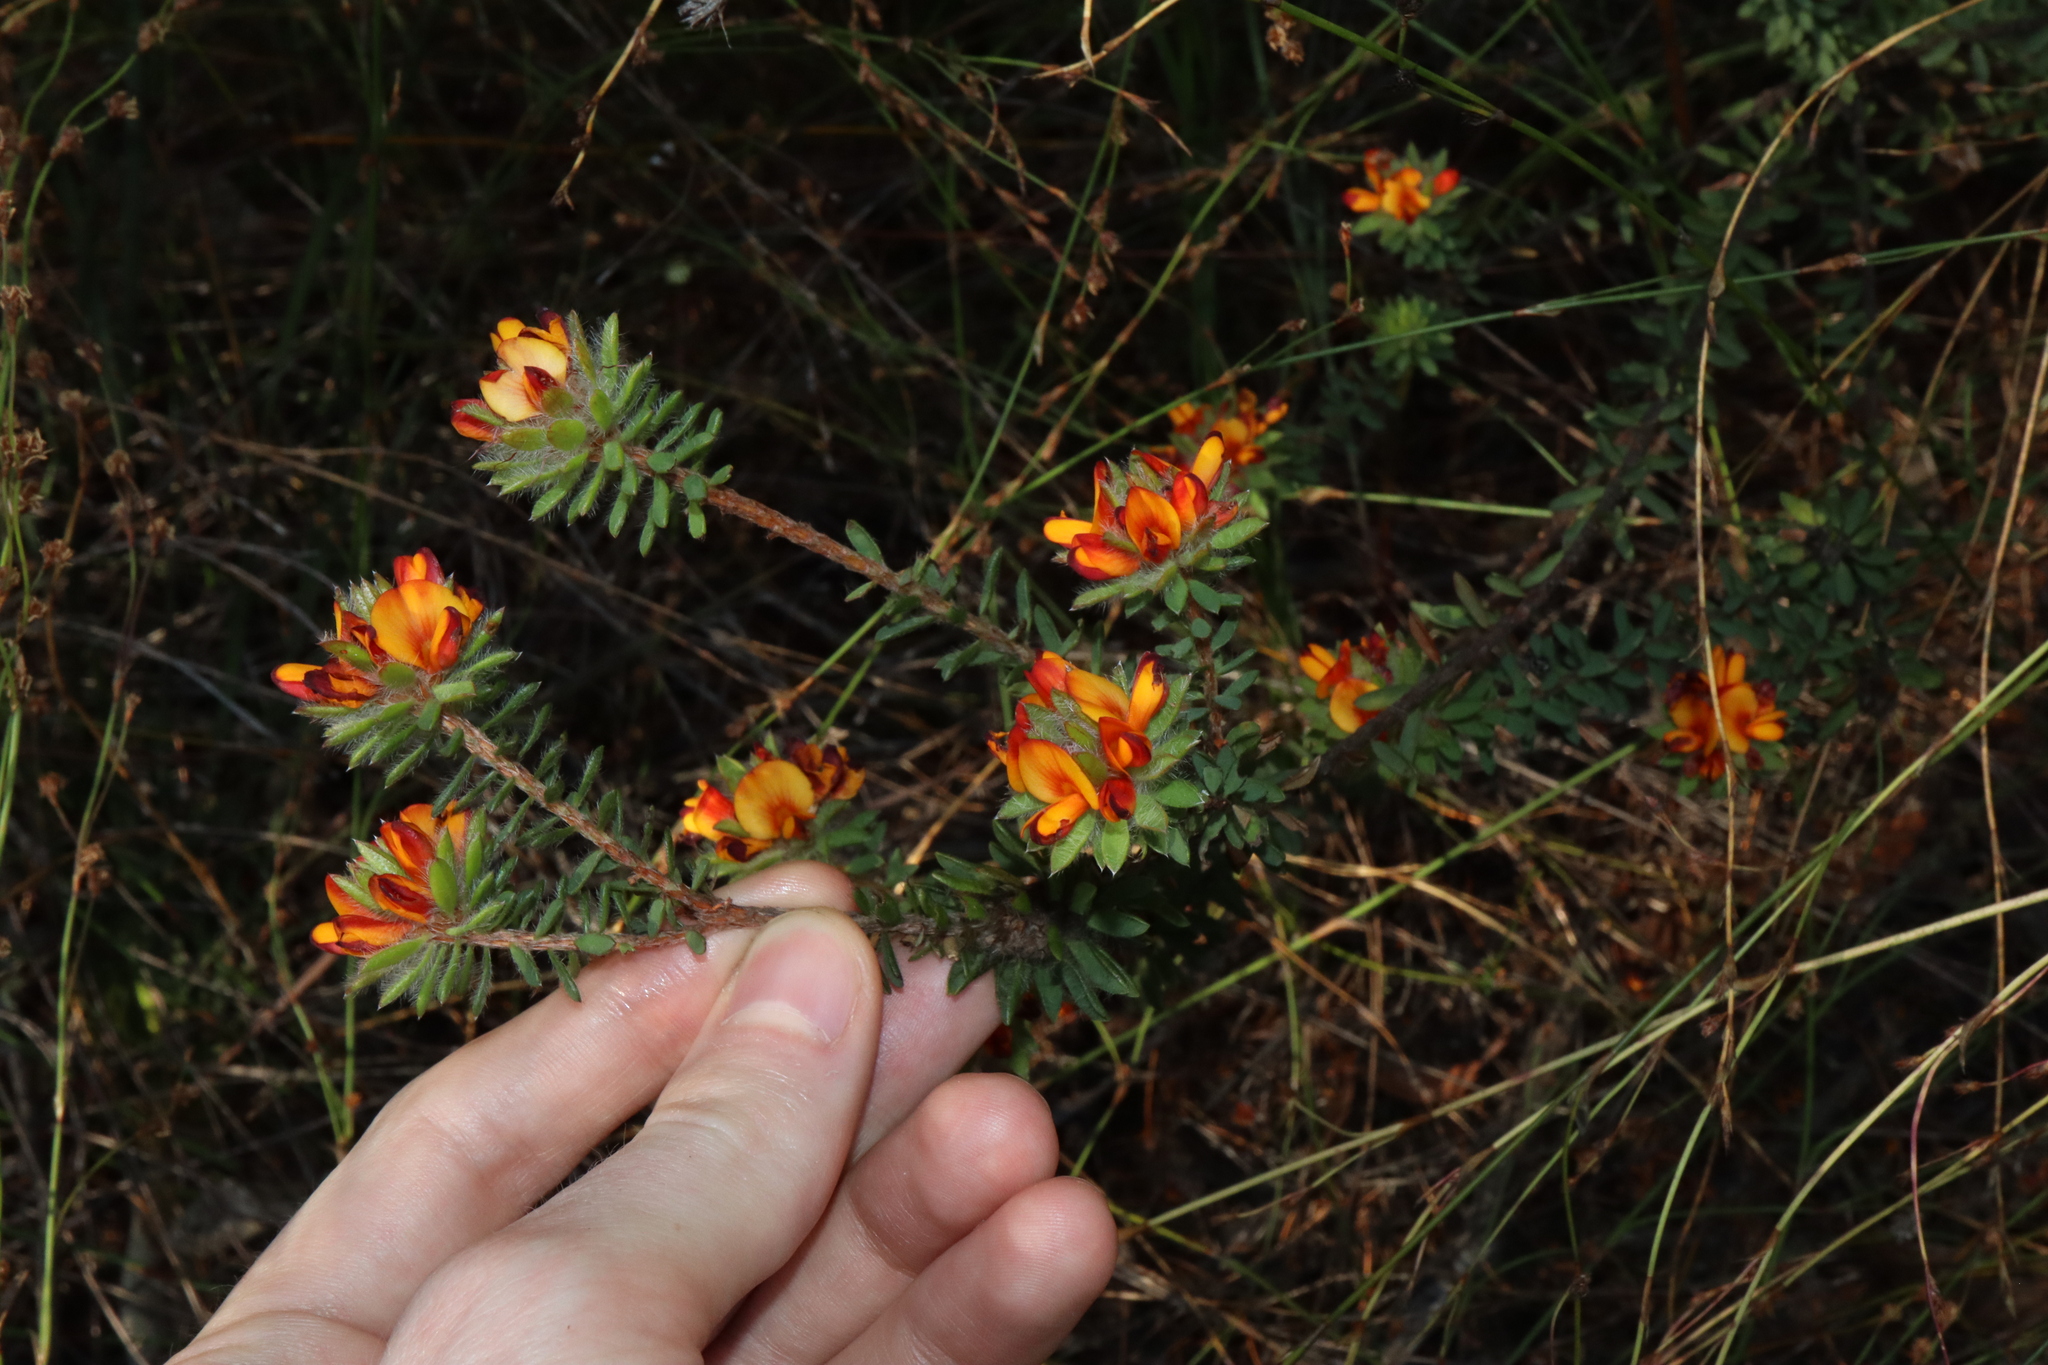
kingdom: Plantae
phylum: Tracheophyta
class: Magnoliopsida
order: Fabales
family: Fabaceae
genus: Pultenaea
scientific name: Pultenaea tuberculata
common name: Wreath bush-pea
